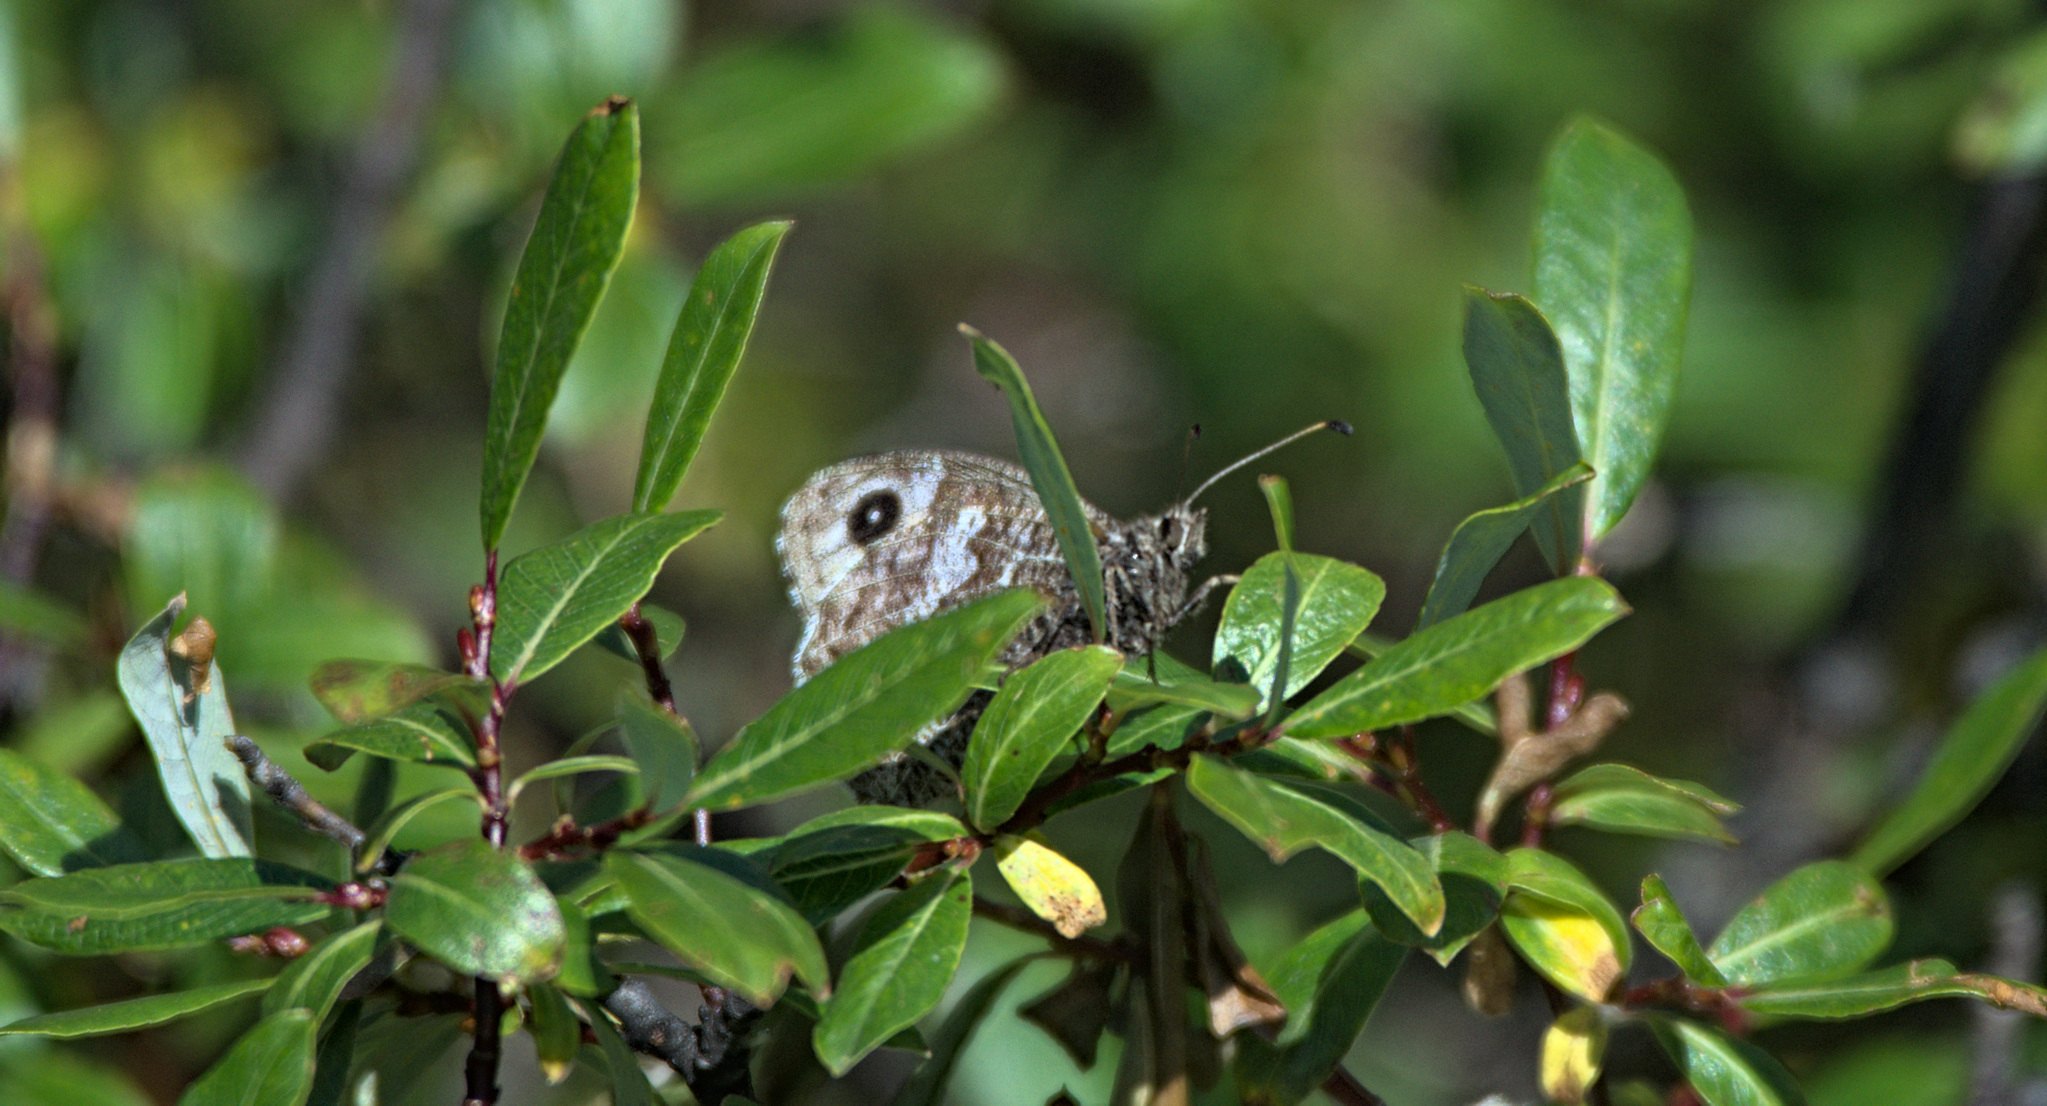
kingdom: Animalia
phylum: Arthropoda
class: Insecta
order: Lepidoptera
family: Nymphalidae
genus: Hipparchia
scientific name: Hipparchia autonoe
